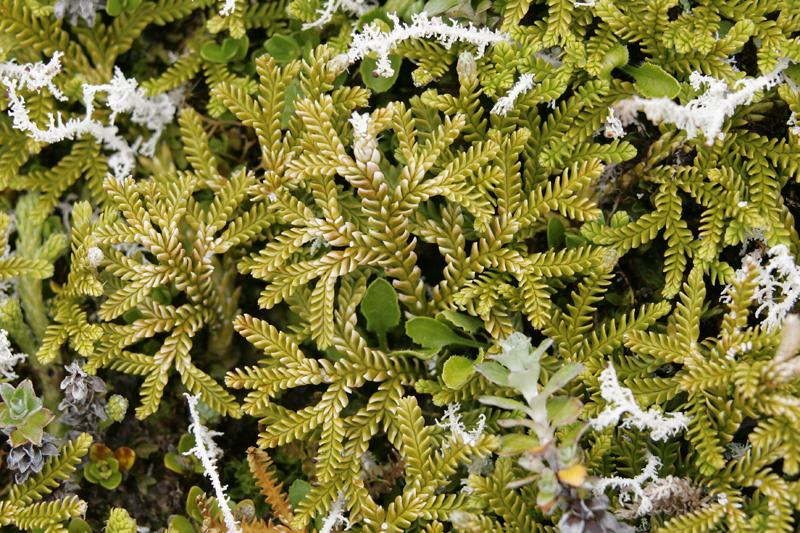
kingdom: Plantae
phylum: Tracheophyta
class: Lycopodiopsida
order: Lycopodiales
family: Lycopodiaceae
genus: Diphasium
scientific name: Diphasium scariosum
